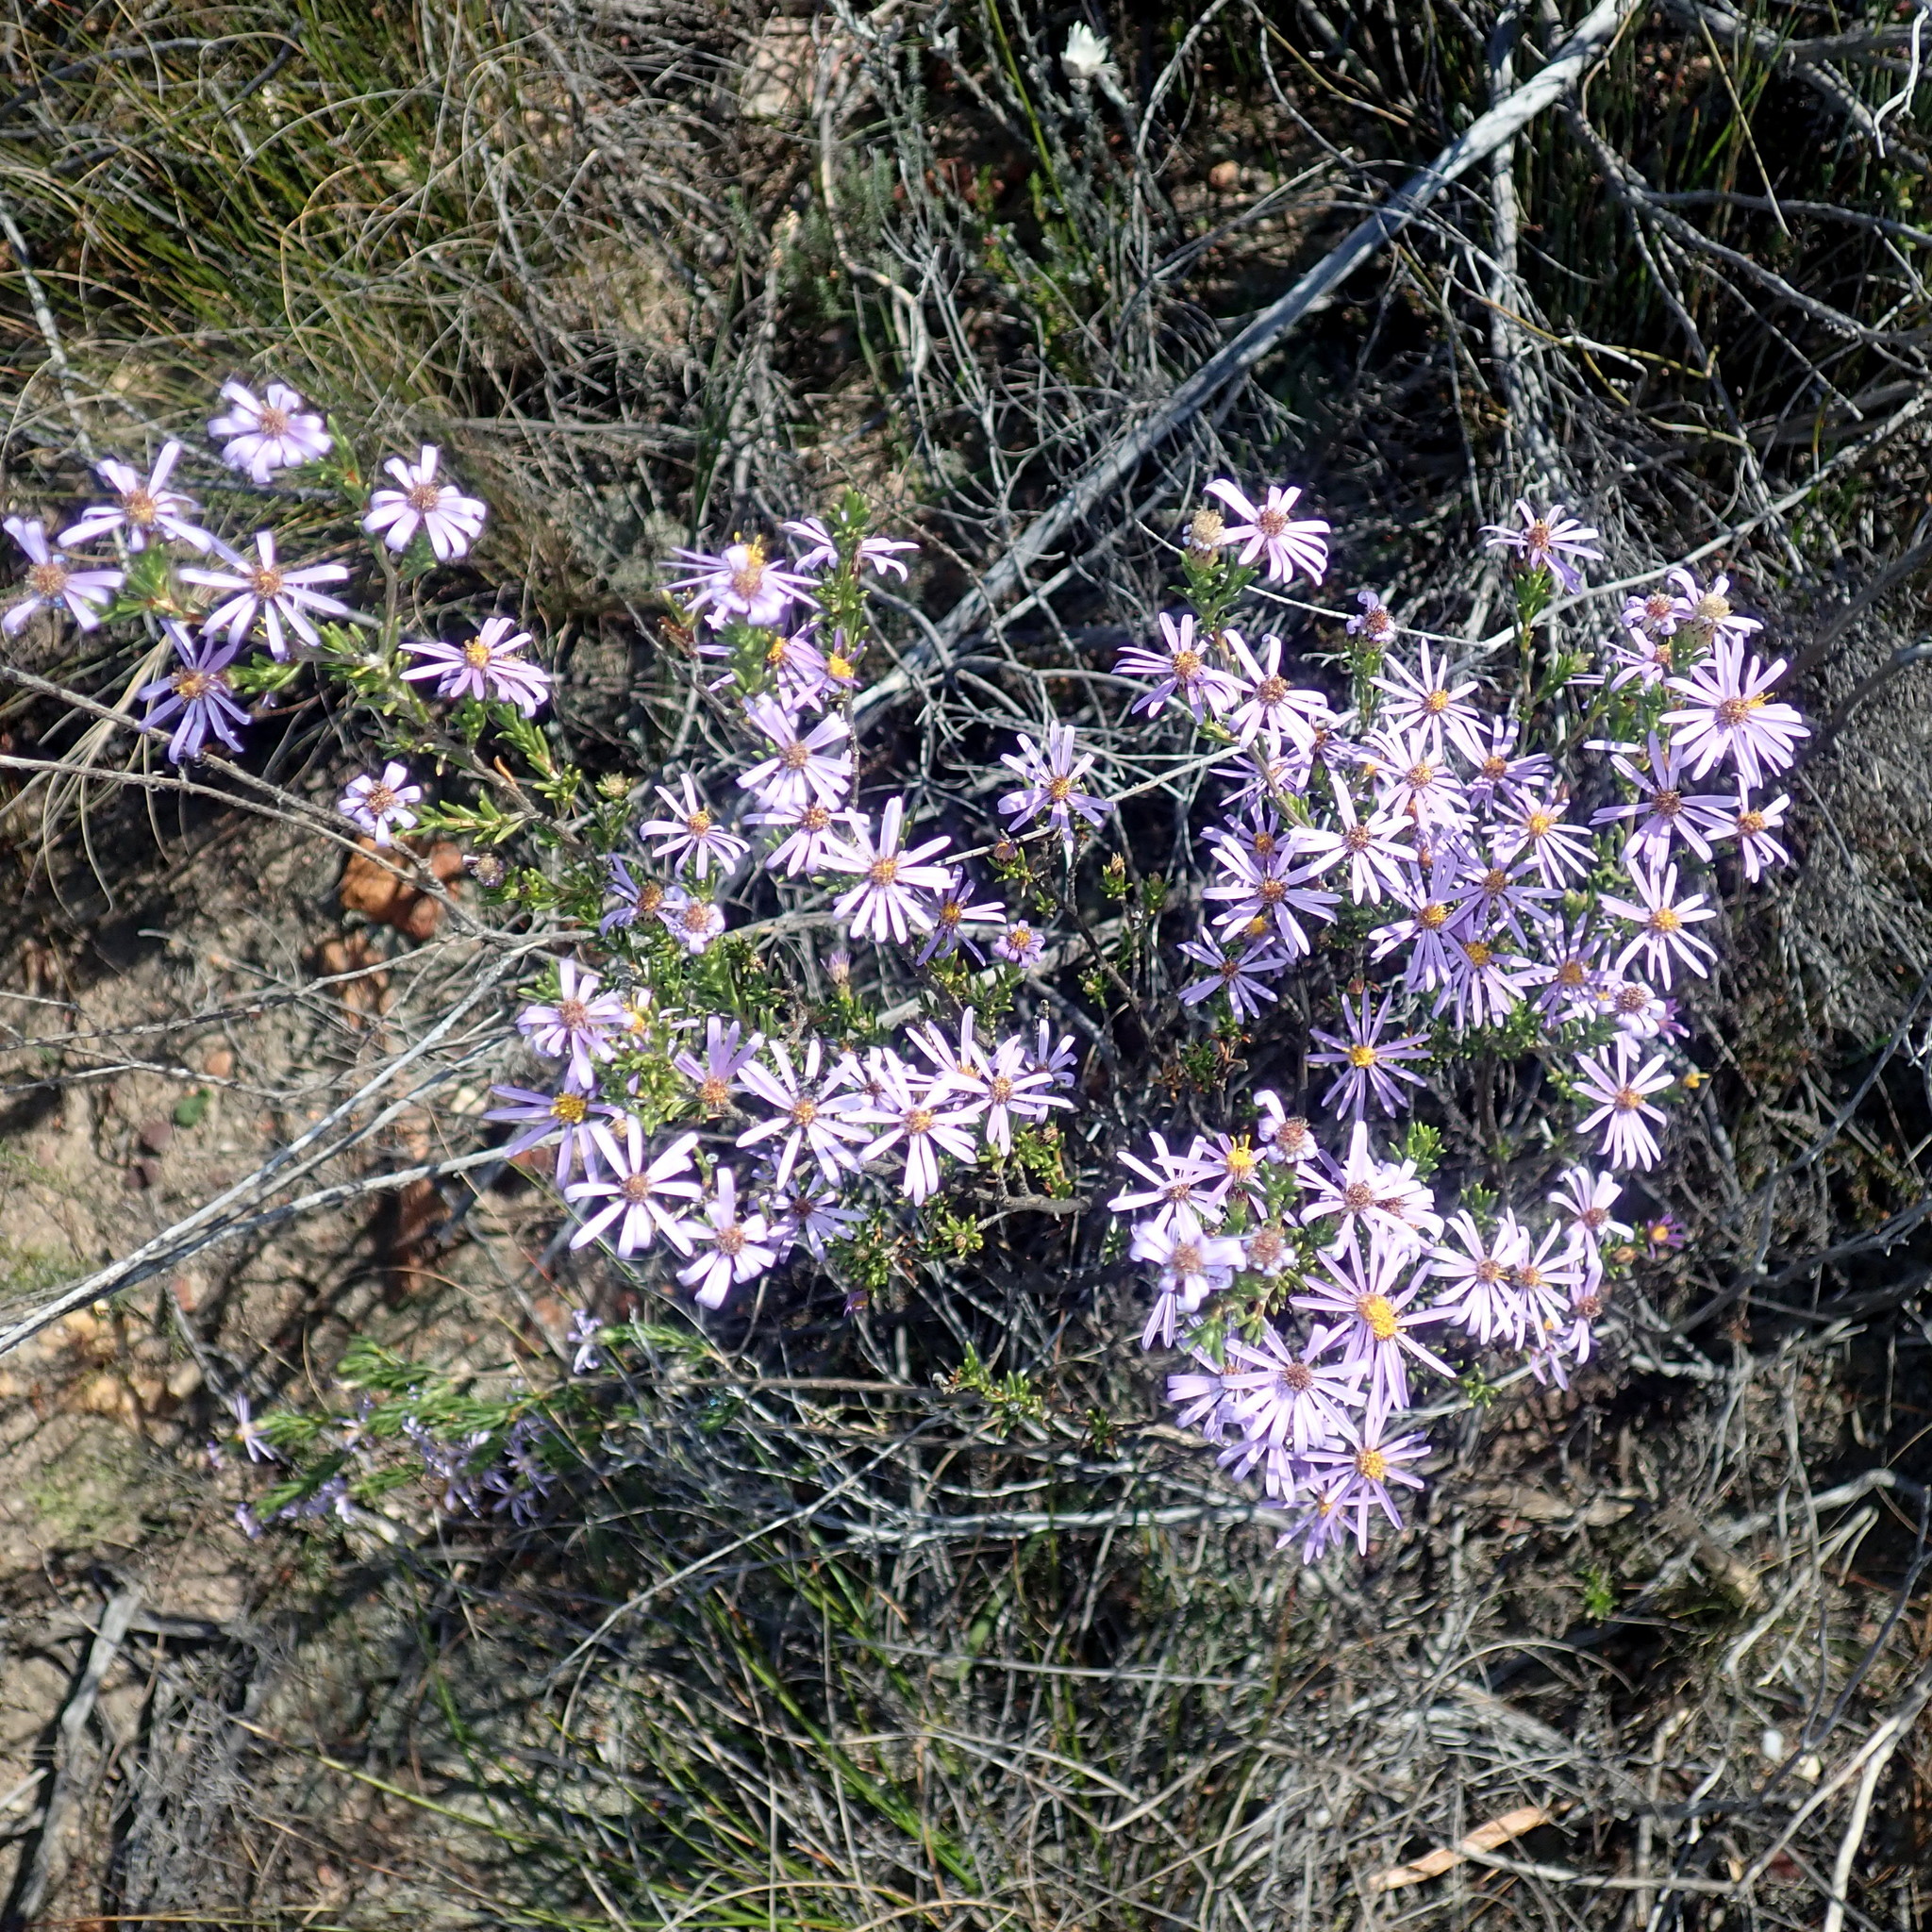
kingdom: Plantae
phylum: Tracheophyta
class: Magnoliopsida
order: Asterales
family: Asteraceae
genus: Felicia
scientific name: Felicia filifolia
